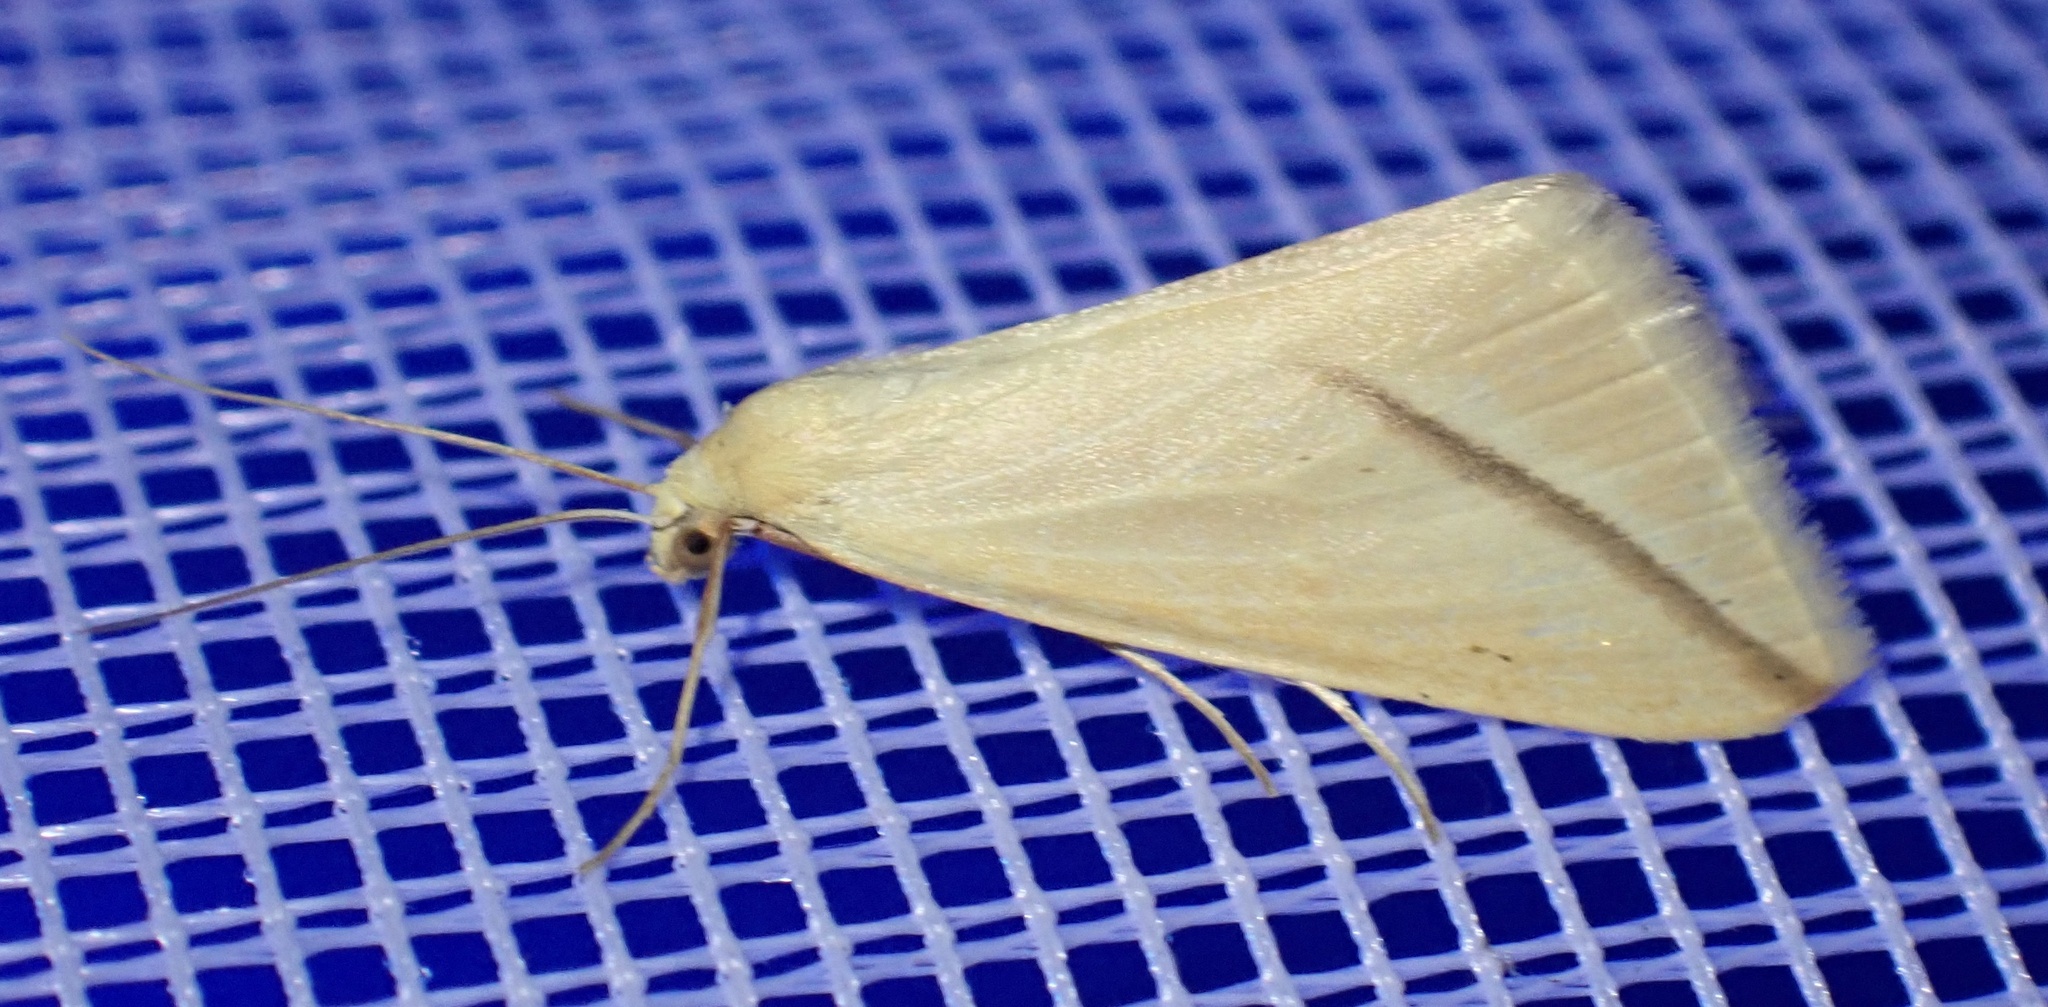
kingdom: Animalia
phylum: Arthropoda
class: Insecta
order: Lepidoptera
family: Geometridae
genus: Rhodometra
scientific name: Rhodometra sacraria
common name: Vestal
